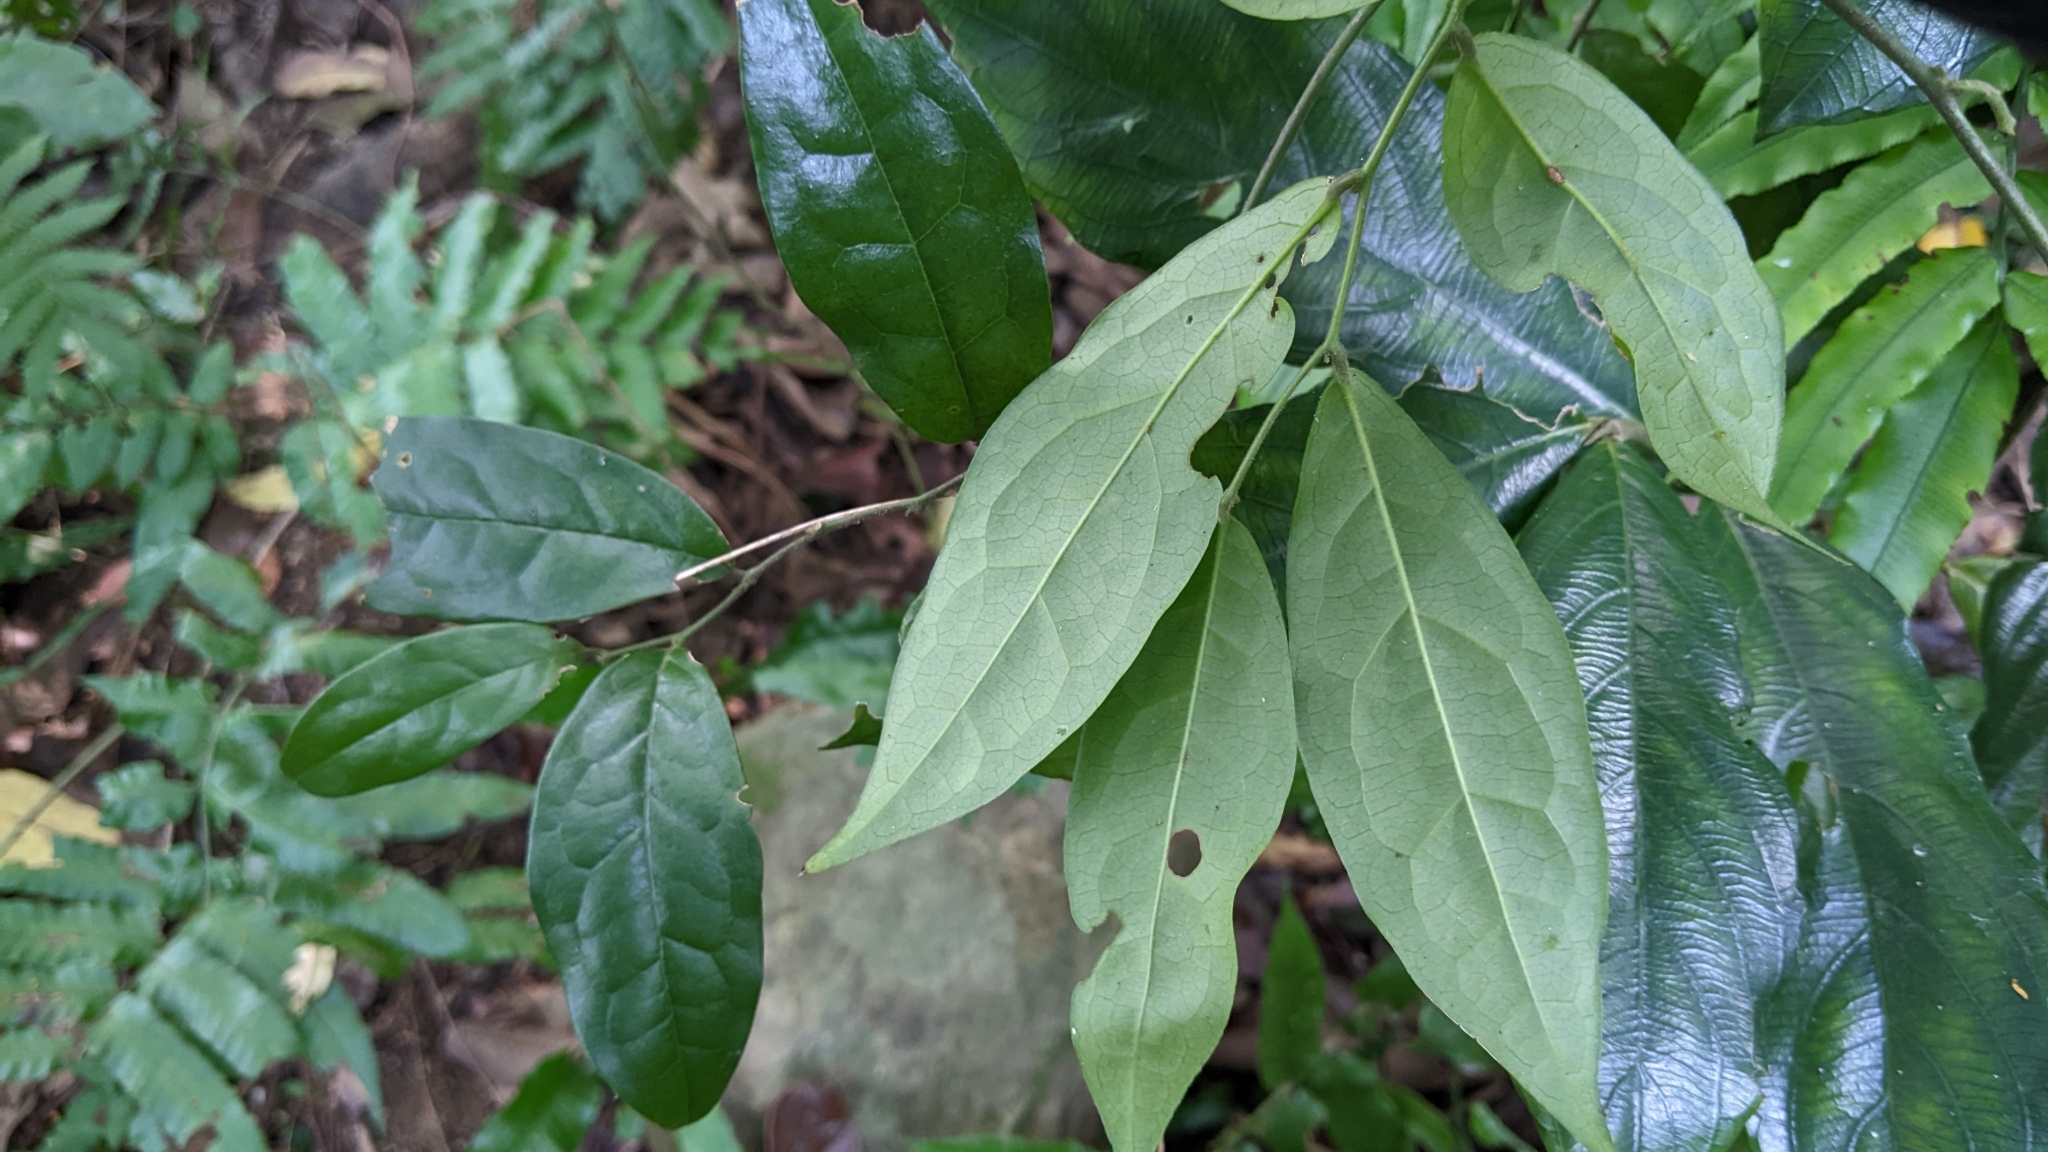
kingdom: Plantae
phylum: Tracheophyta
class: Magnoliopsida
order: Proteales
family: Sabiaceae
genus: Sabia
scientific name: Sabia swinhoei
